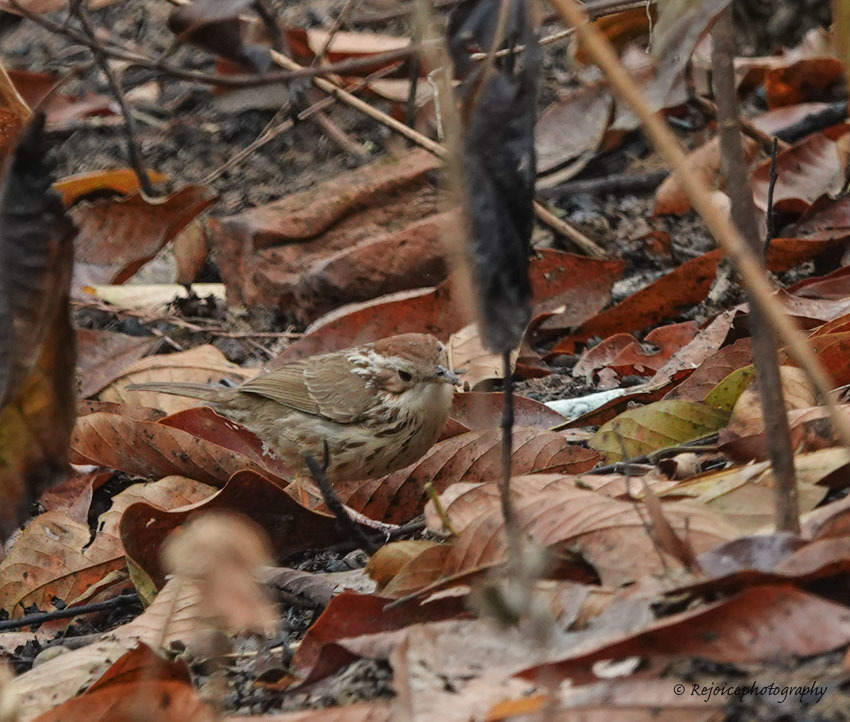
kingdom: Animalia
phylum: Chordata
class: Aves
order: Passeriformes
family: Pellorneidae
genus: Pellorneum
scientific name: Pellorneum ruficeps
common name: Puff-throated babbler
